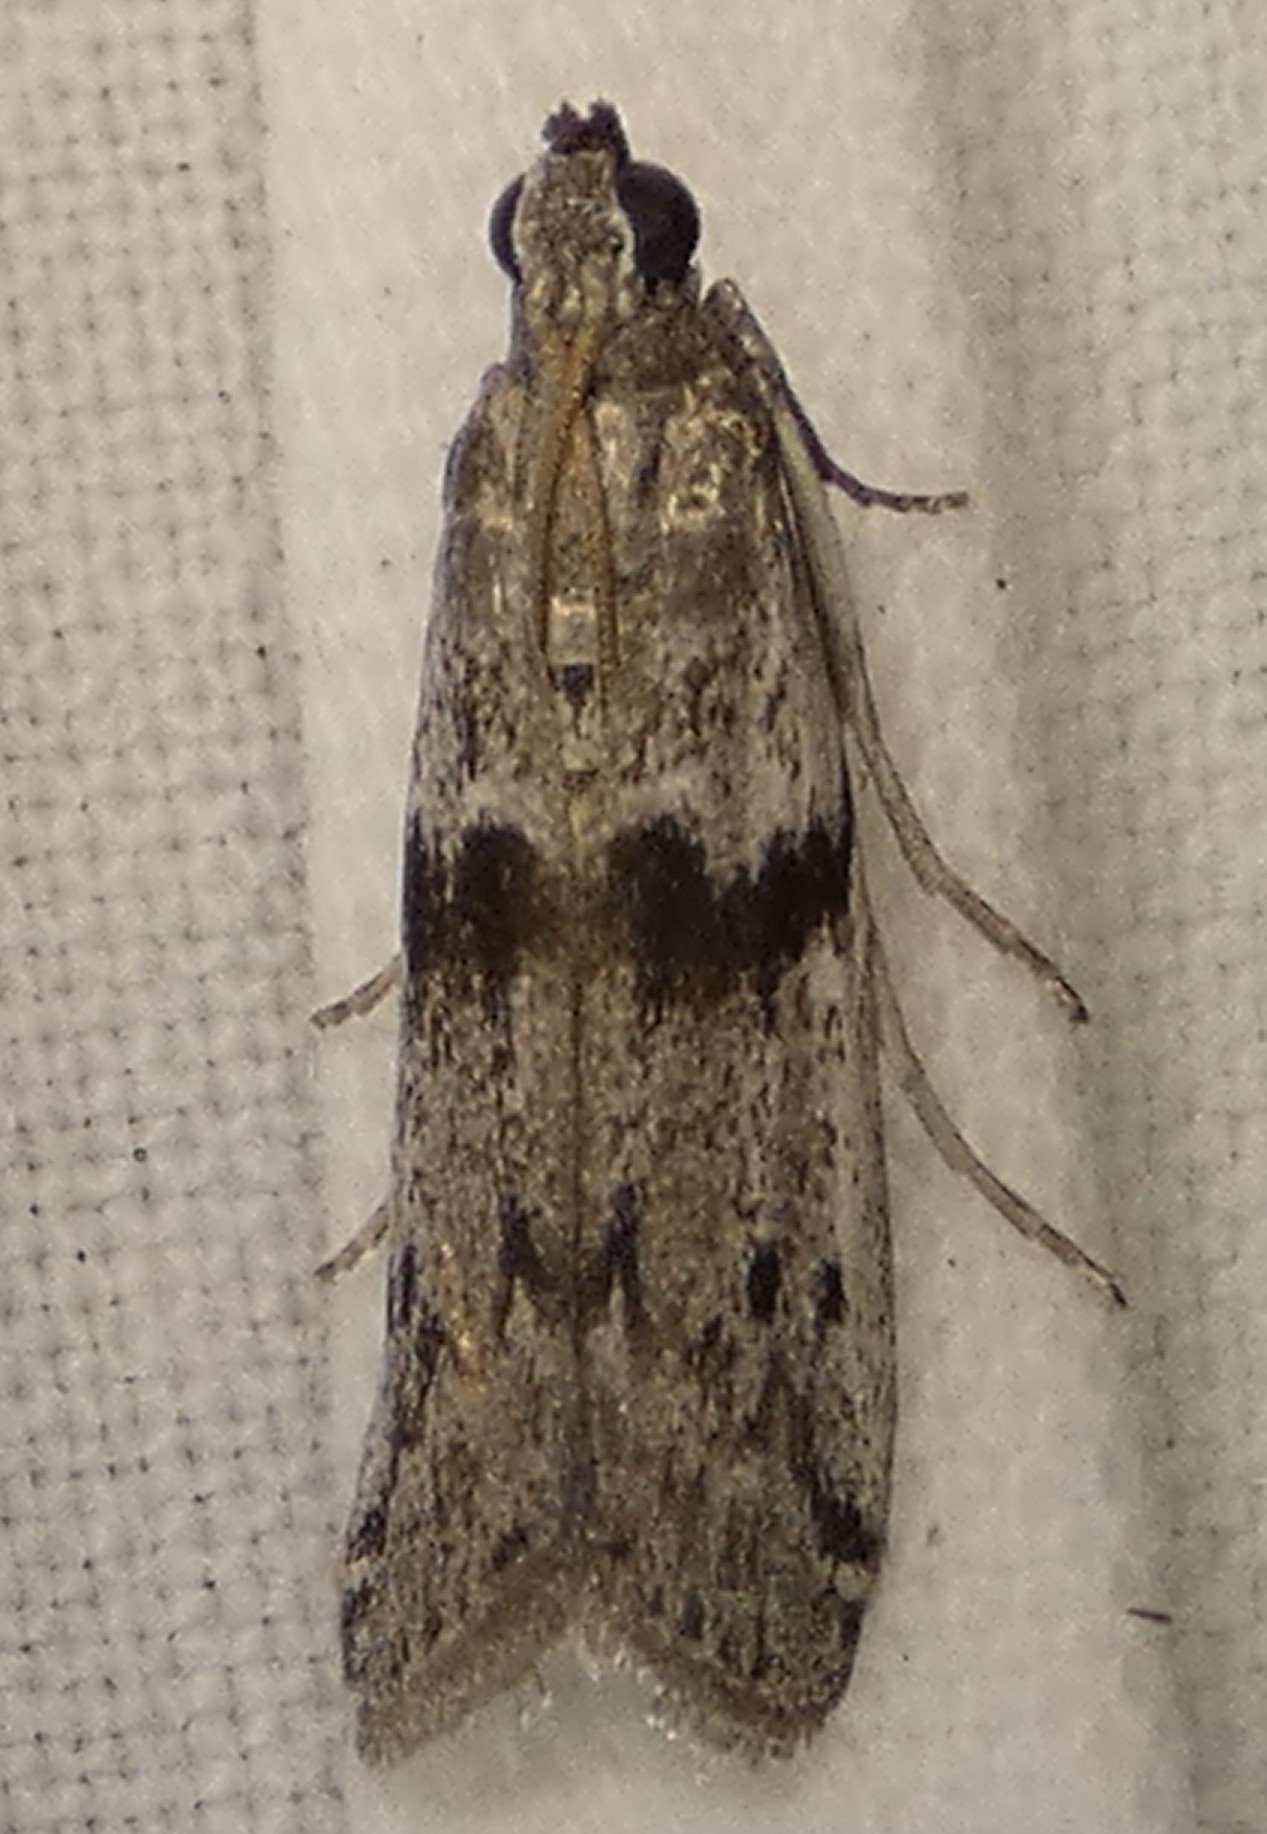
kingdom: Animalia
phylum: Arthropoda
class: Insecta
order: Lepidoptera
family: Pyralidae
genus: Homoeosoma
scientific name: Homoeosoma deceptorium
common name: Black-banded homoeosoma moth
